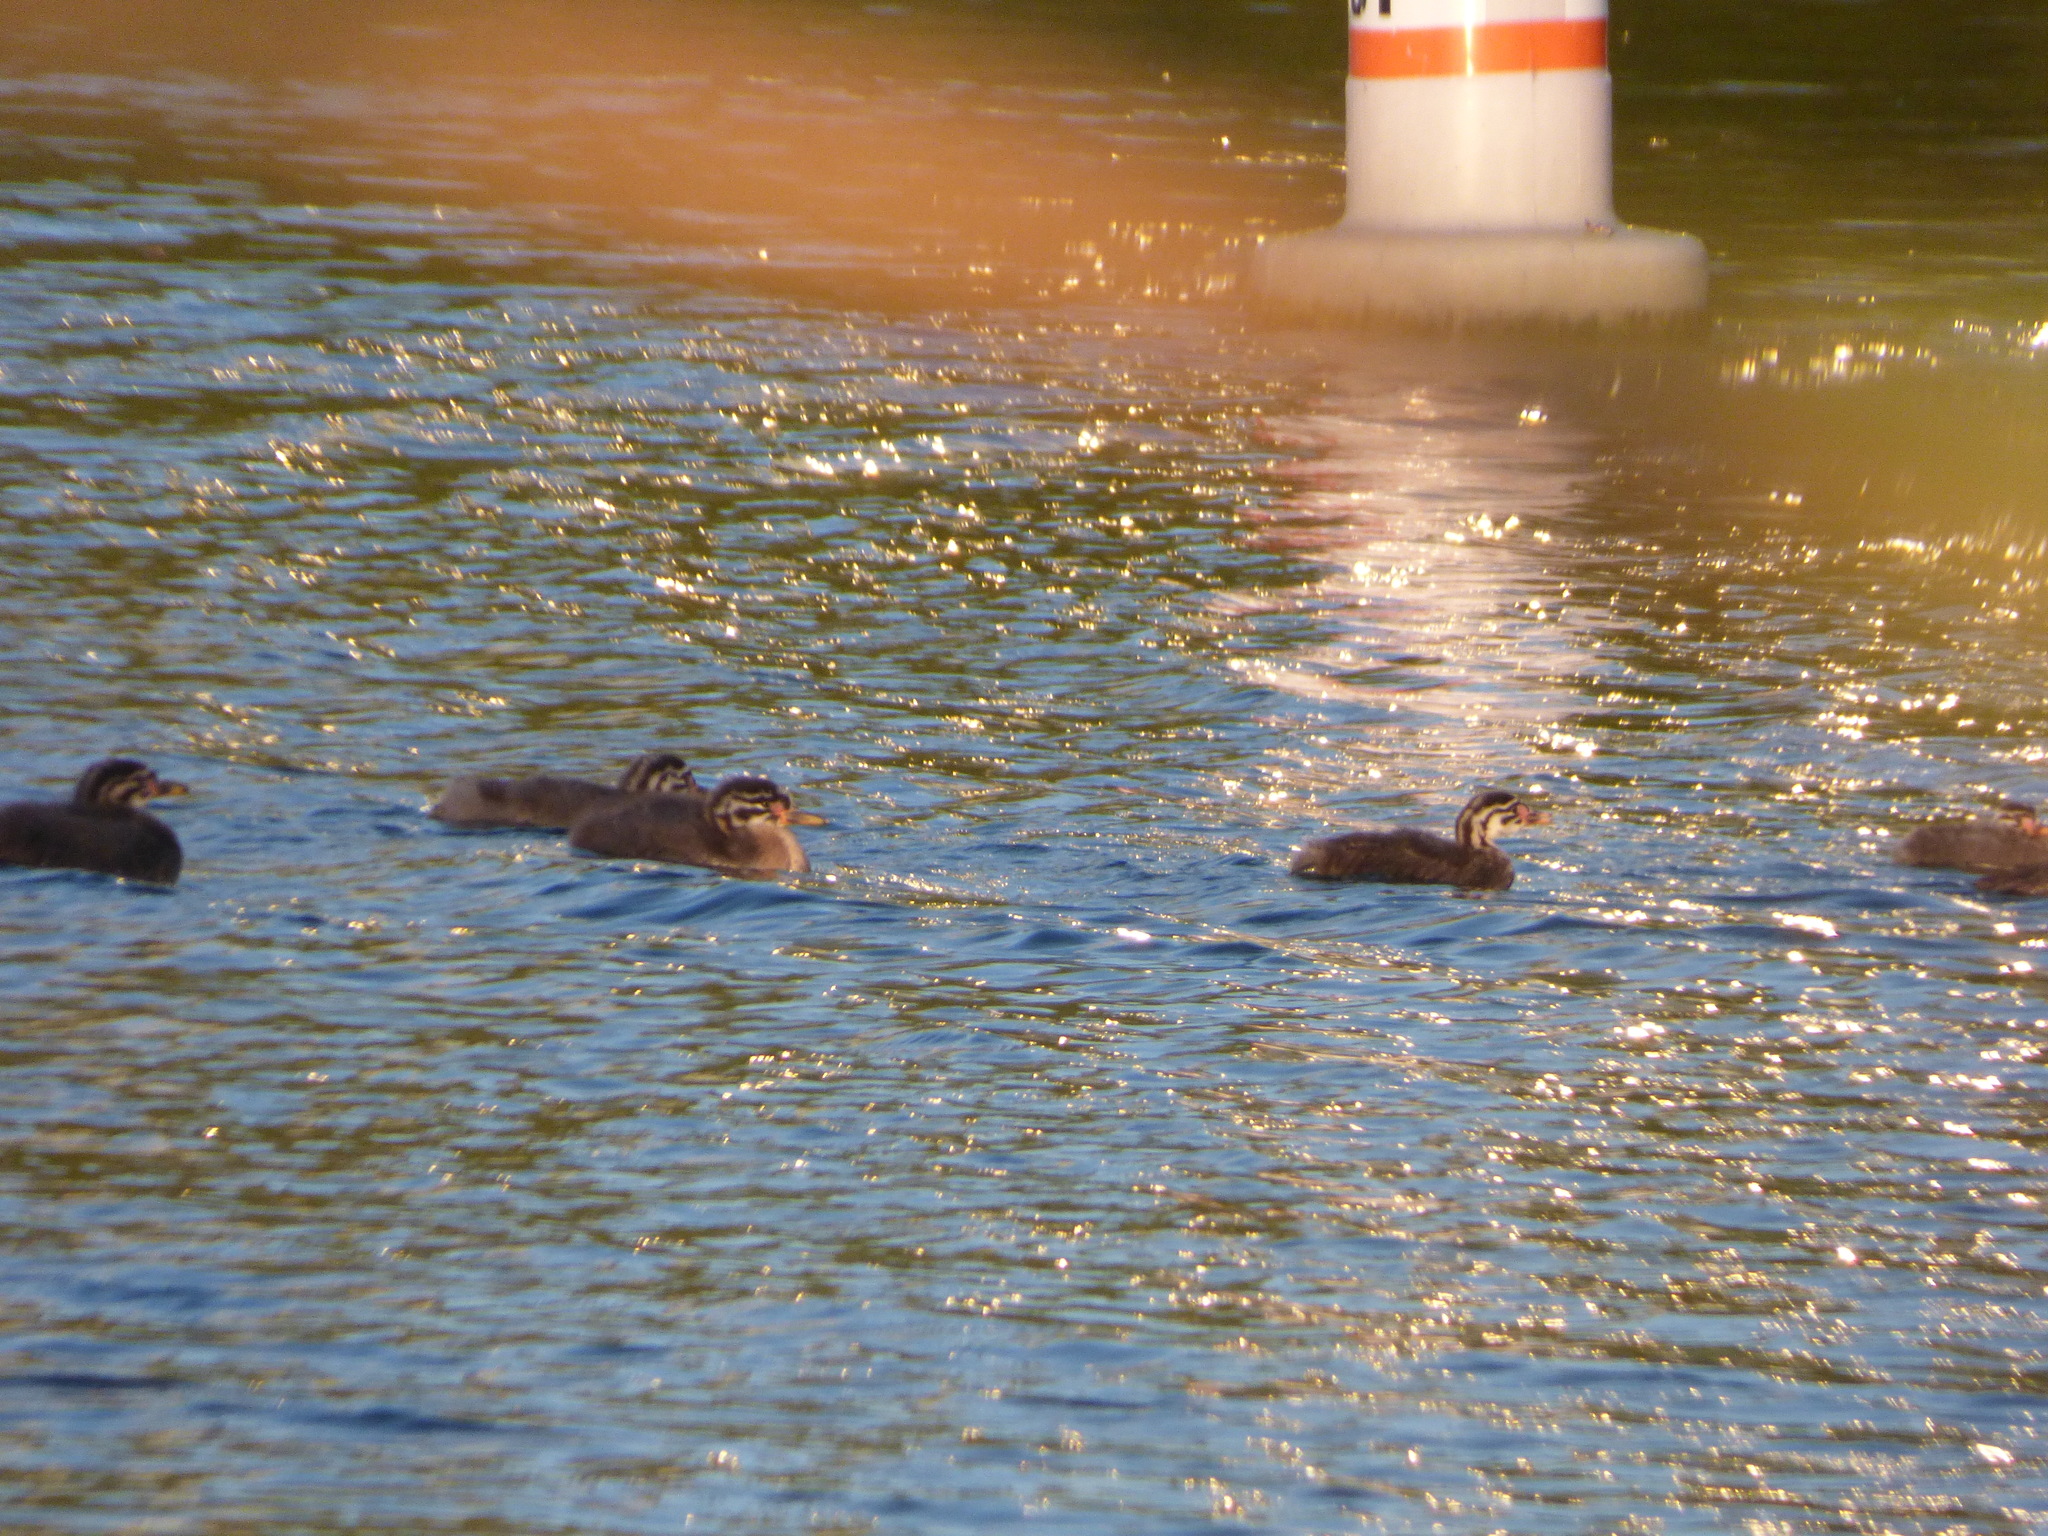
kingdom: Animalia
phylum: Chordata
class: Aves
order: Podicipediformes
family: Podicipedidae
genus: Podiceps
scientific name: Podiceps grisegena
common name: Red-necked grebe
